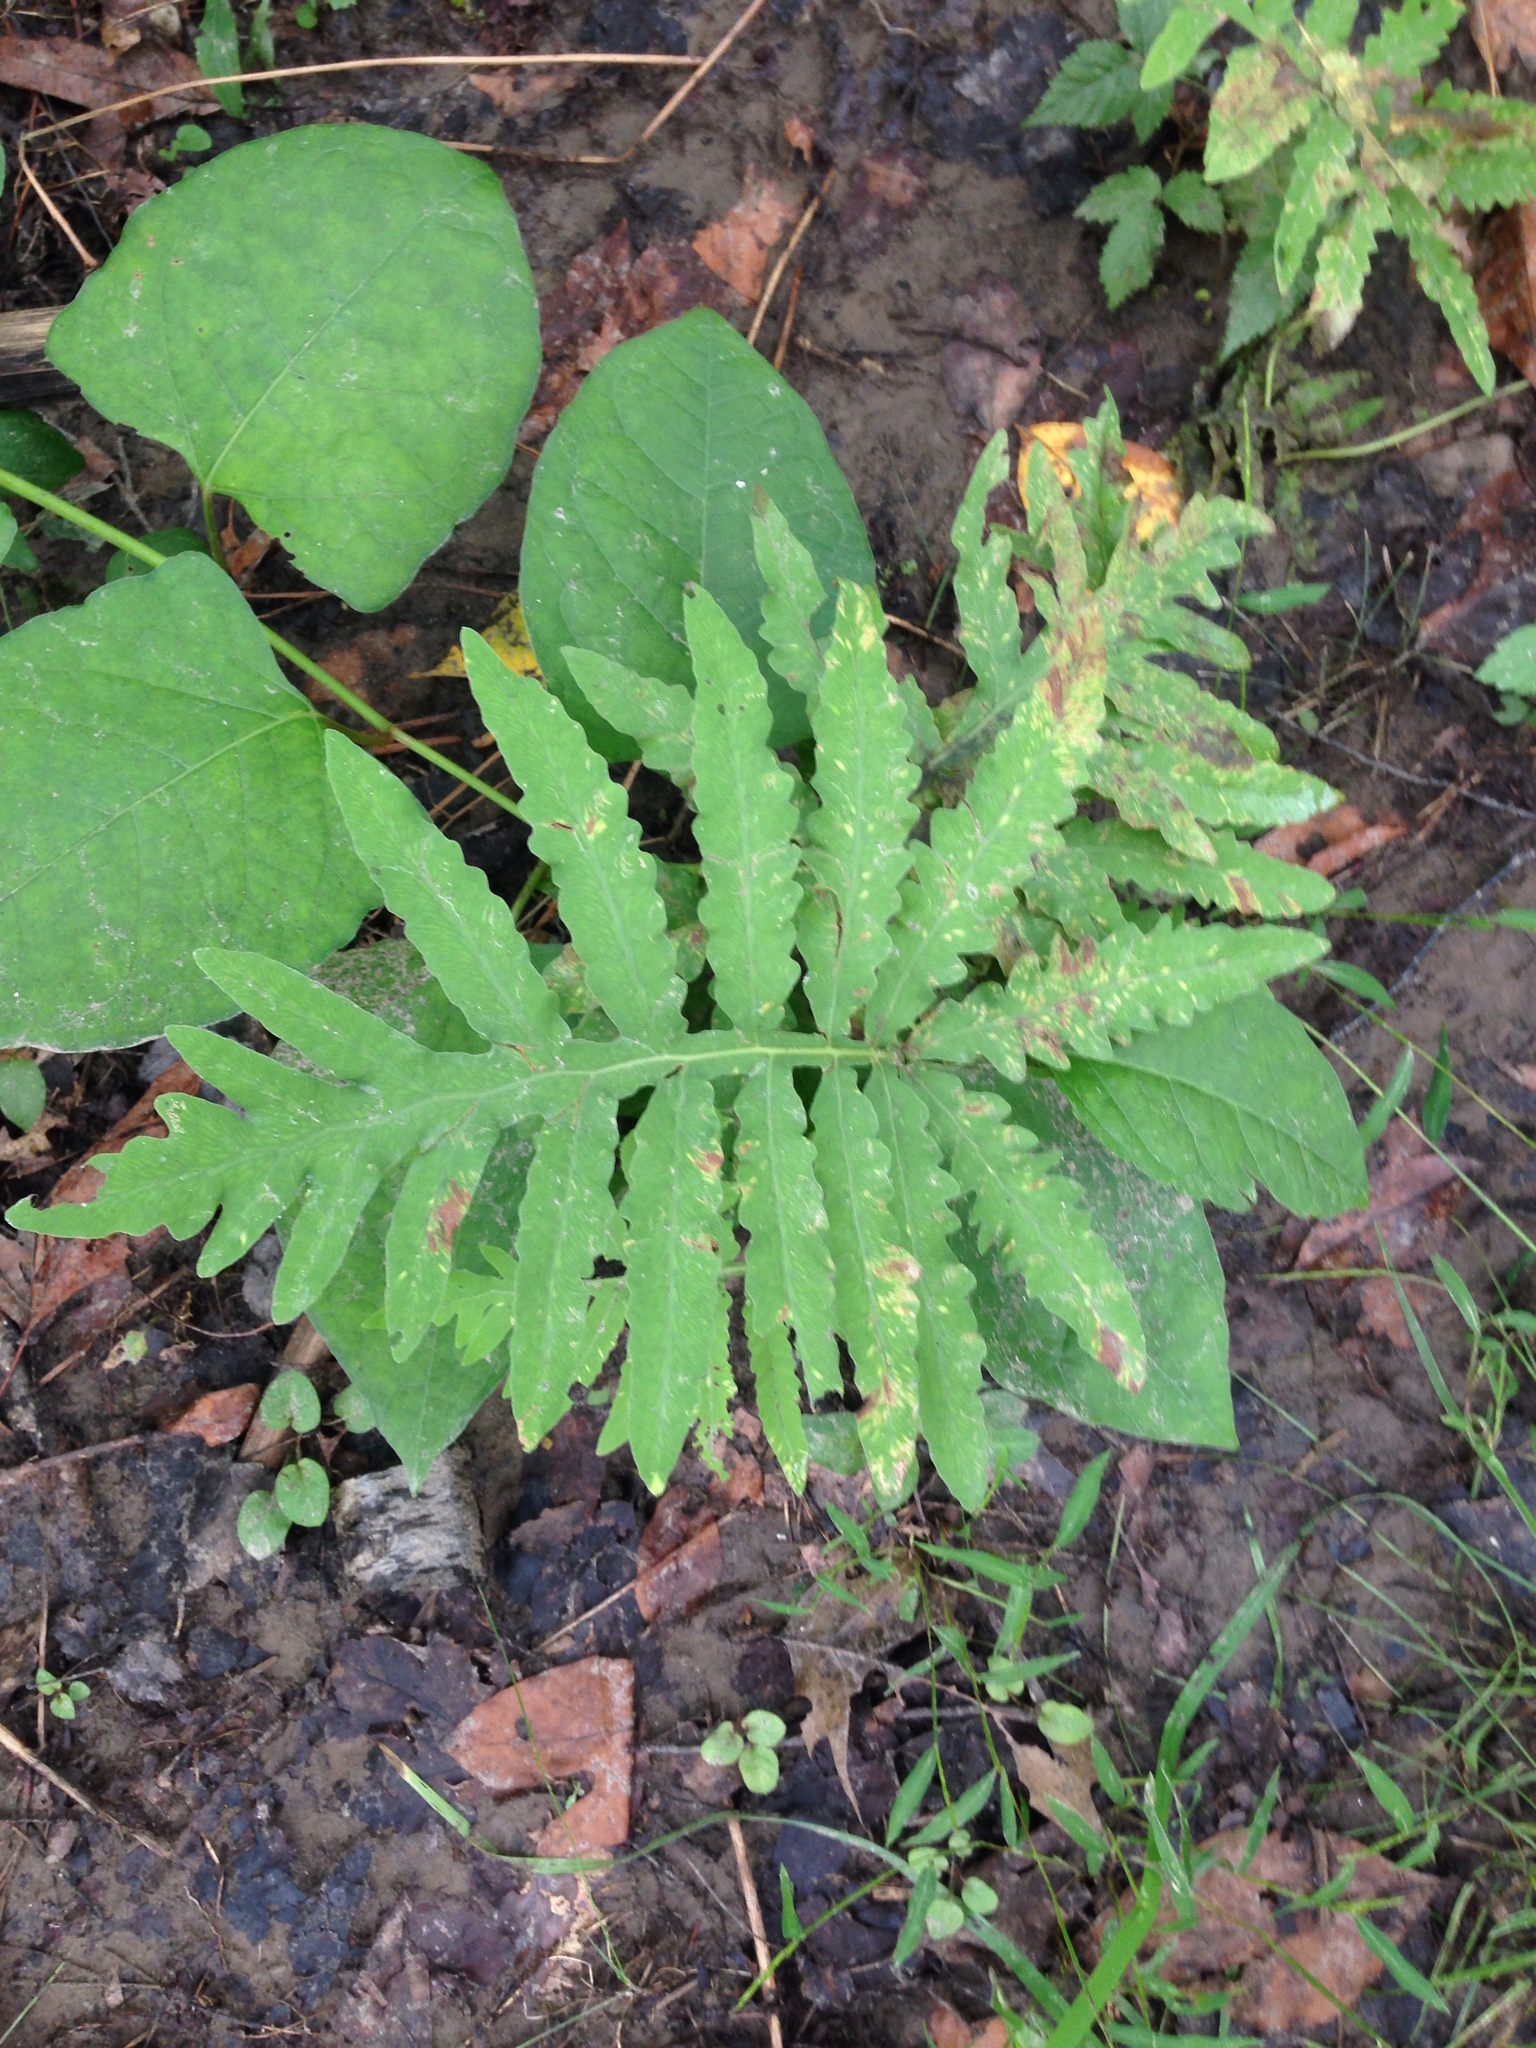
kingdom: Plantae
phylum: Tracheophyta
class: Polypodiopsida
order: Polypodiales
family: Onocleaceae
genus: Onoclea
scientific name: Onoclea sensibilis
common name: Sensitive fern
